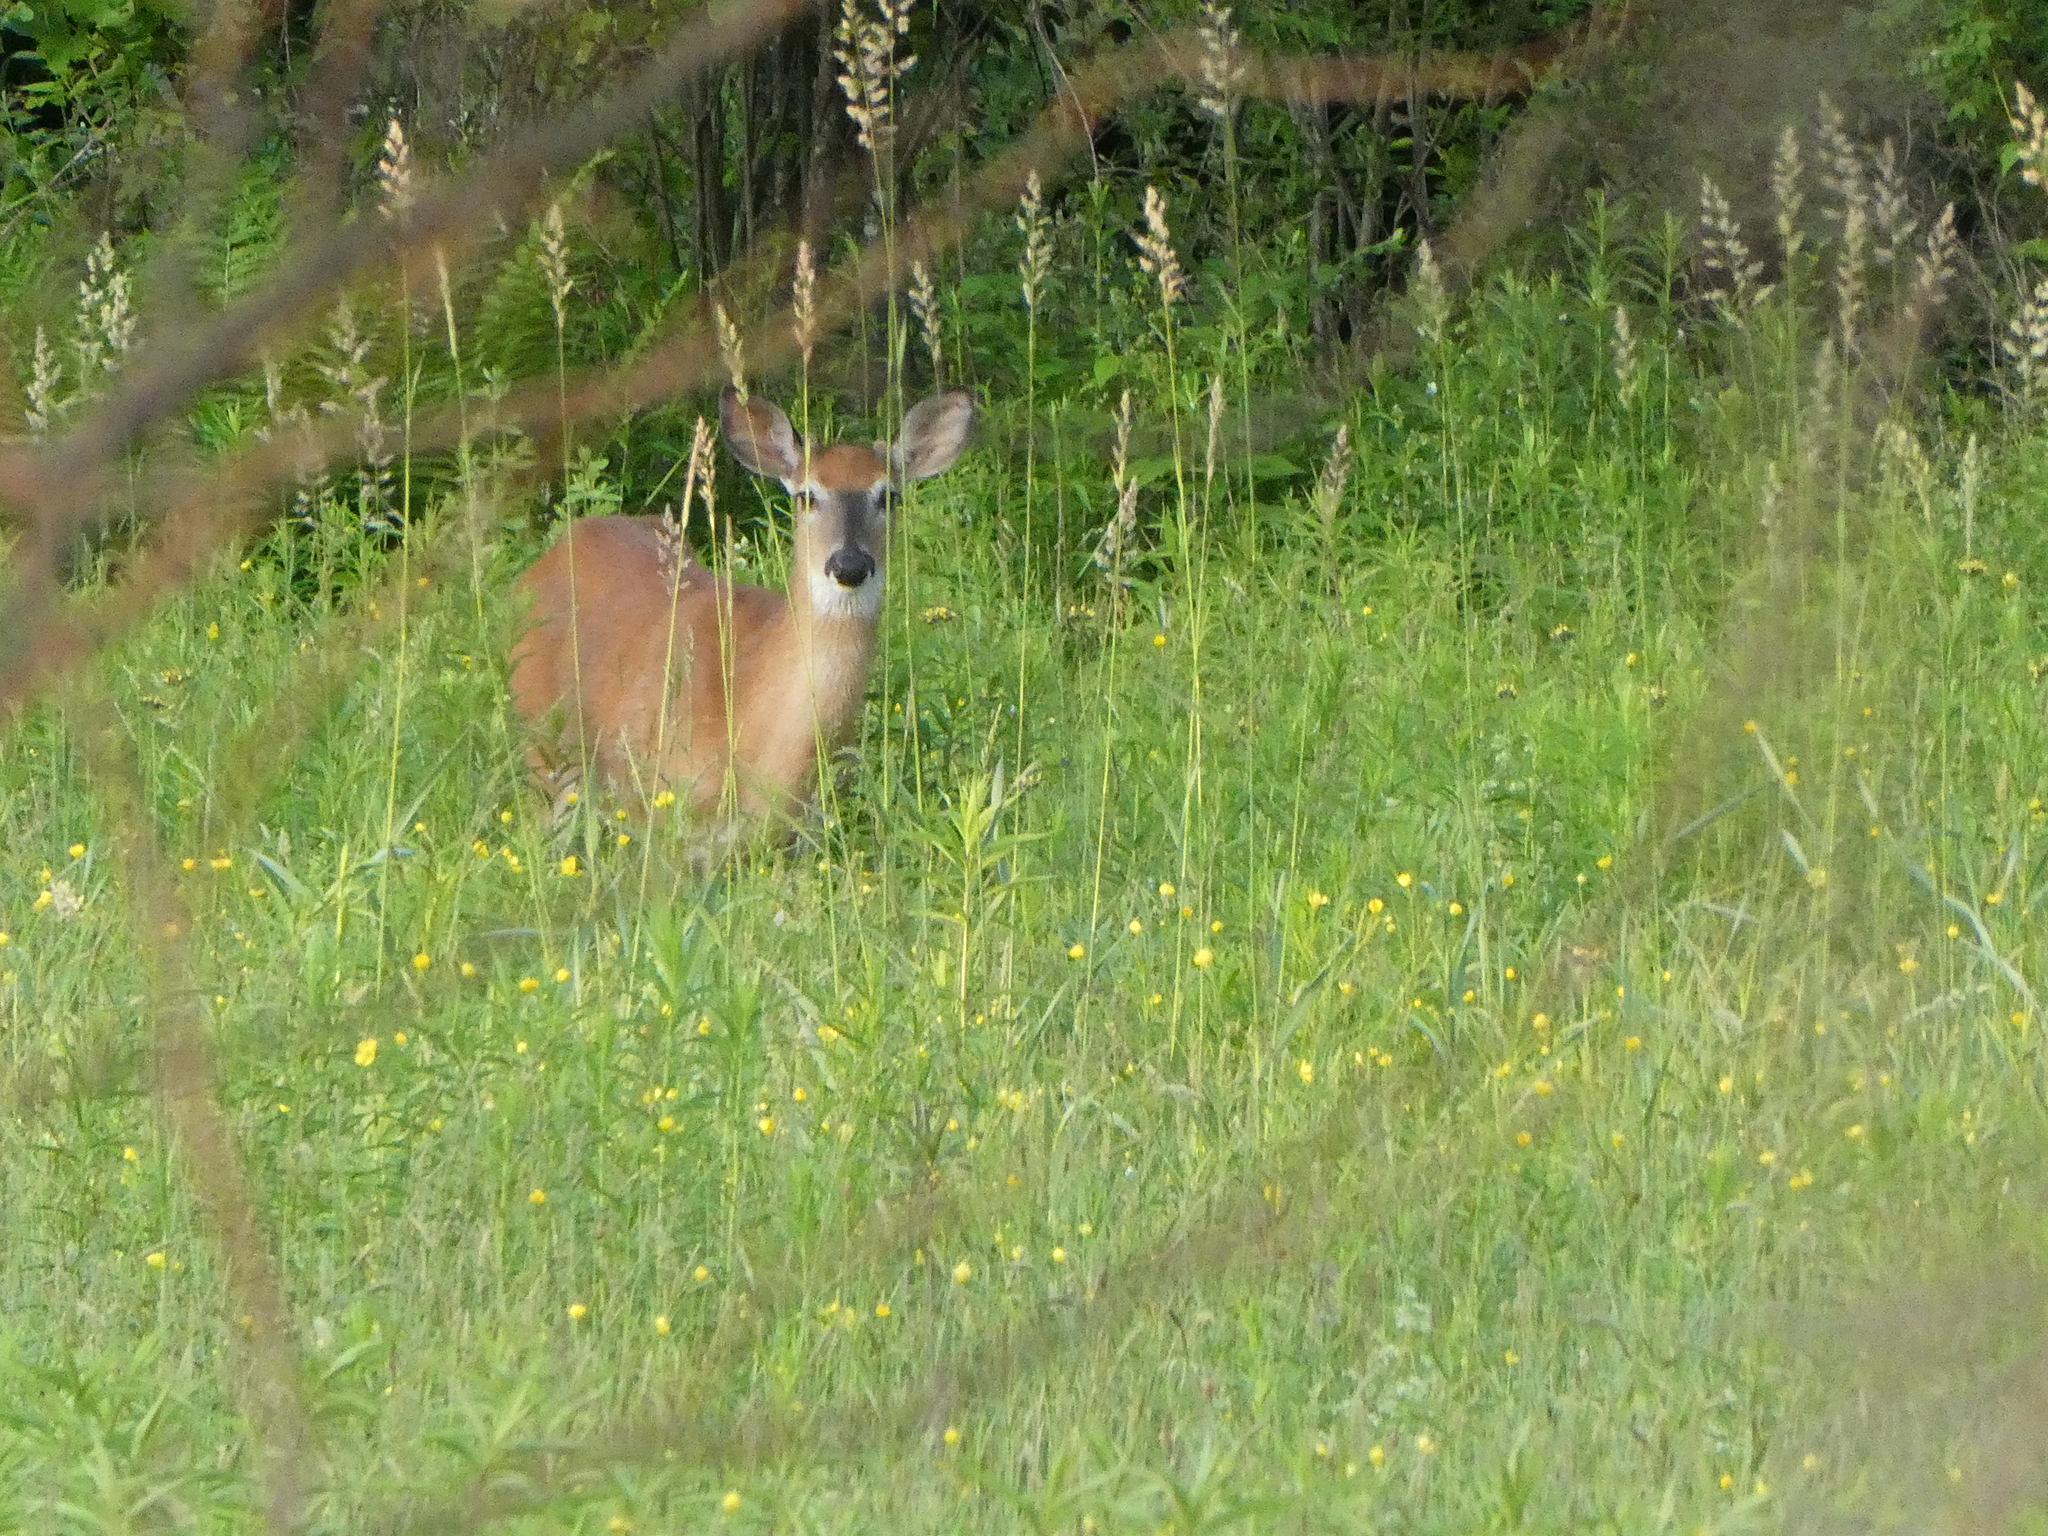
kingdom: Animalia
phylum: Chordata
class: Mammalia
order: Artiodactyla
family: Cervidae
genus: Odocoileus
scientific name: Odocoileus virginianus
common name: White-tailed deer
